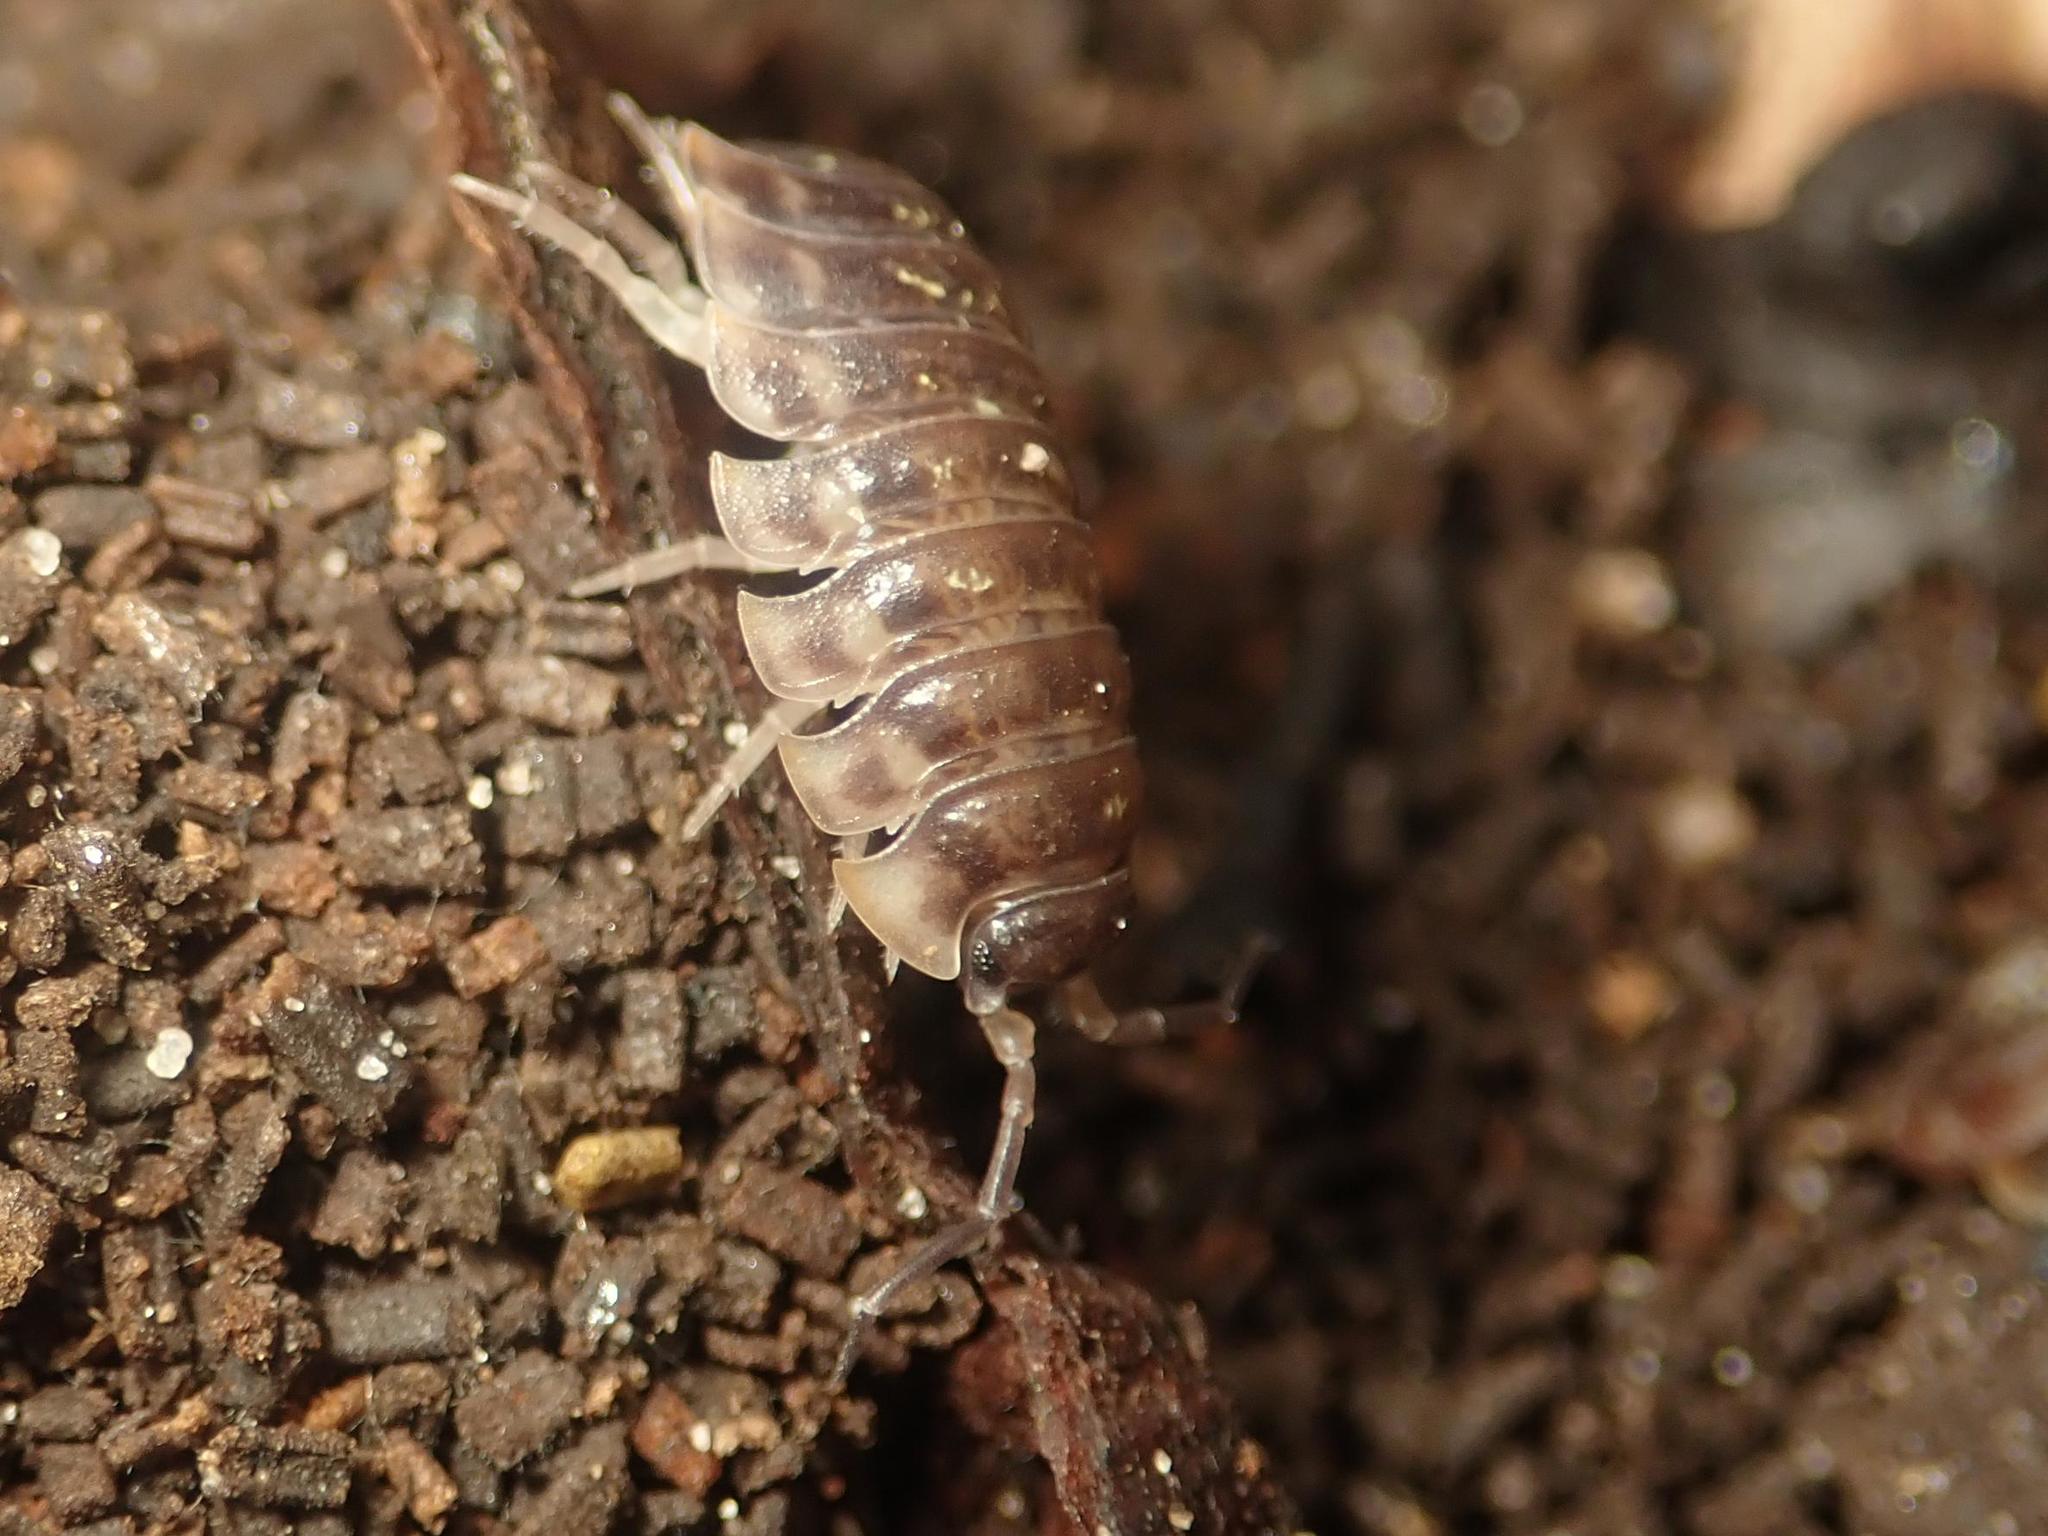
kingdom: Animalia
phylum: Arthropoda
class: Malacostraca
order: Isopoda
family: Oniscidae
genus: Oniscus
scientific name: Oniscus asellus
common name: Common shiny woodlouse
